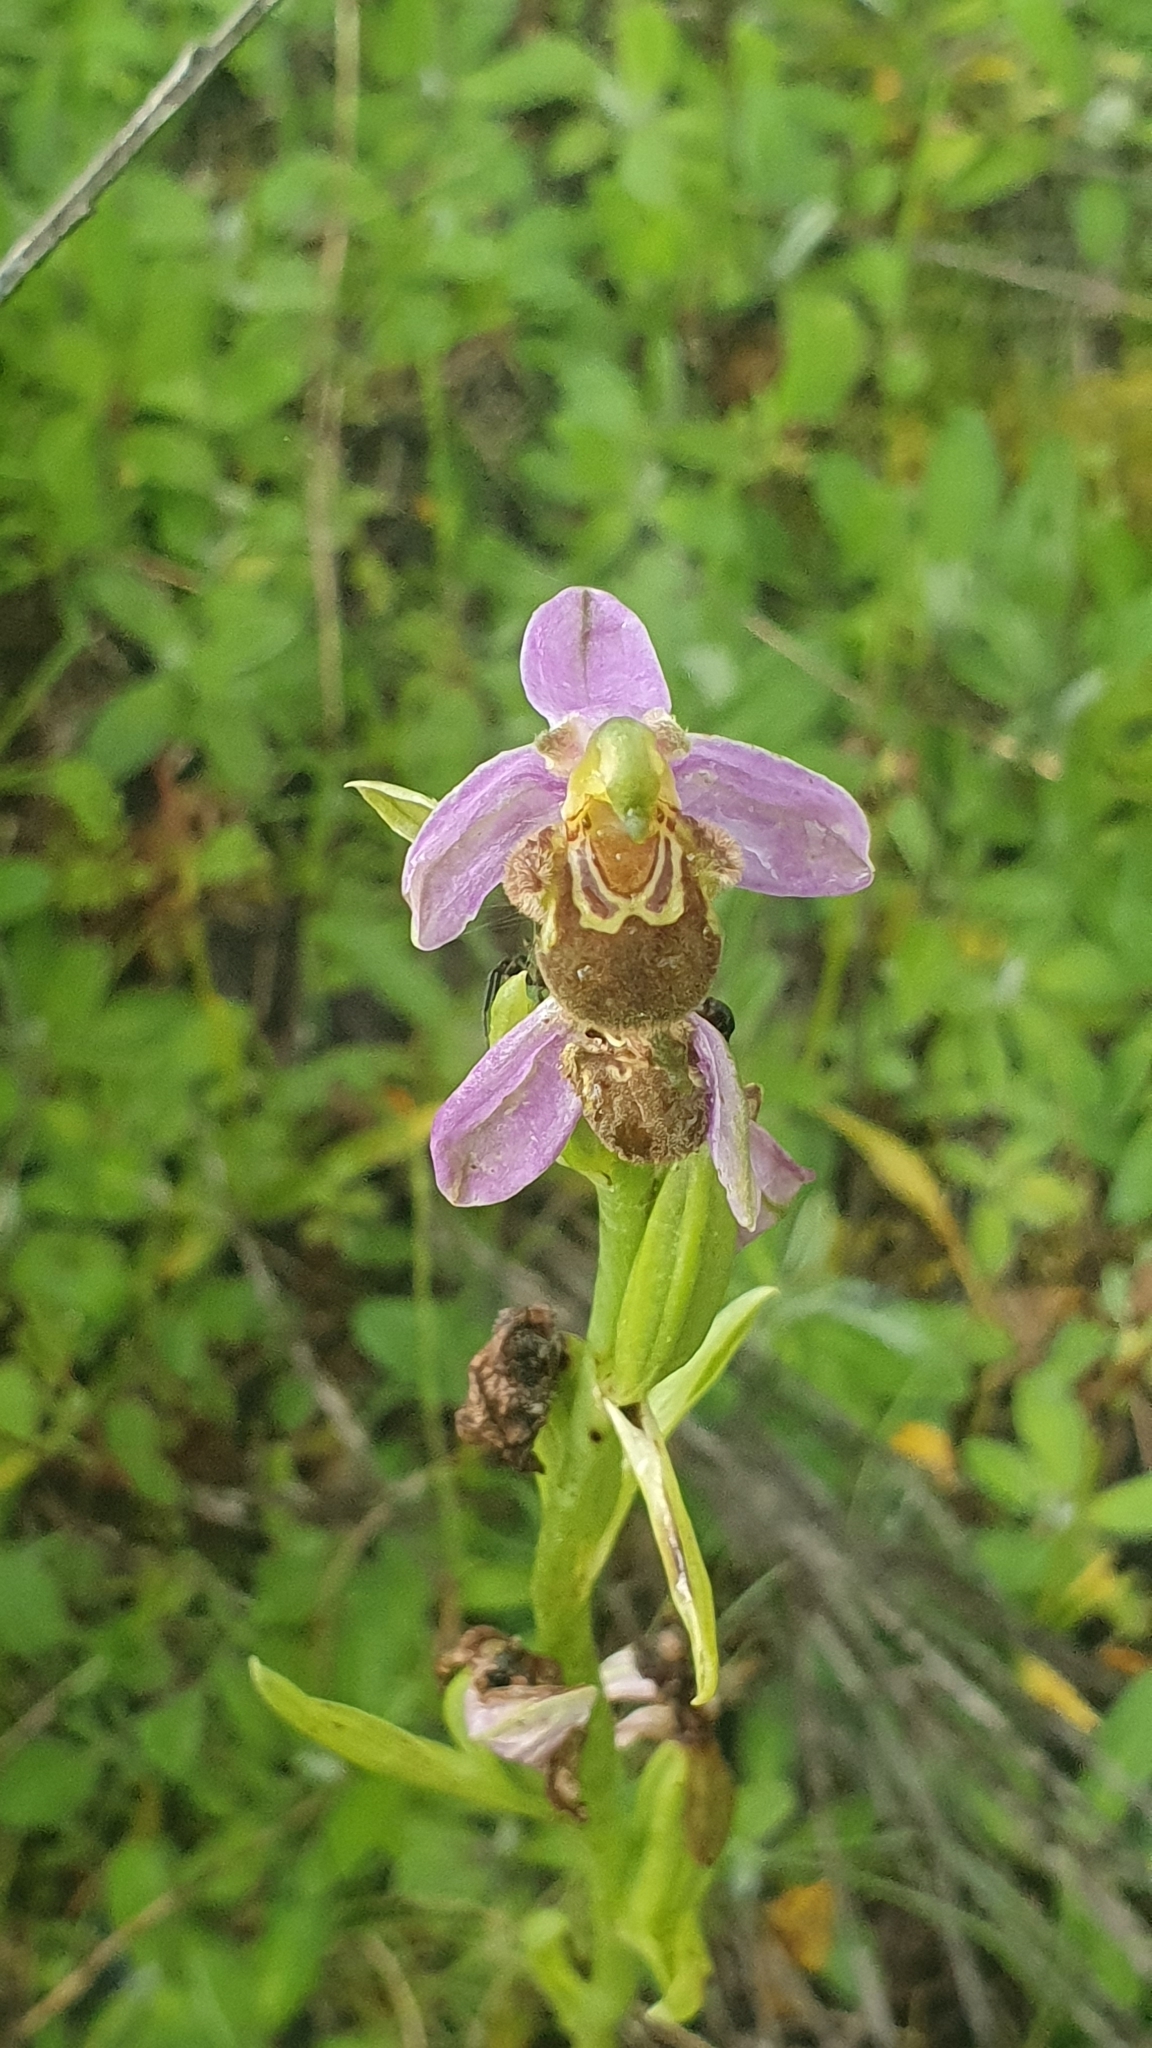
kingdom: Plantae
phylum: Tracheophyta
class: Liliopsida
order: Asparagales
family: Orchidaceae
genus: Ophrys
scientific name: Ophrys apifera
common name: Bee orchid
